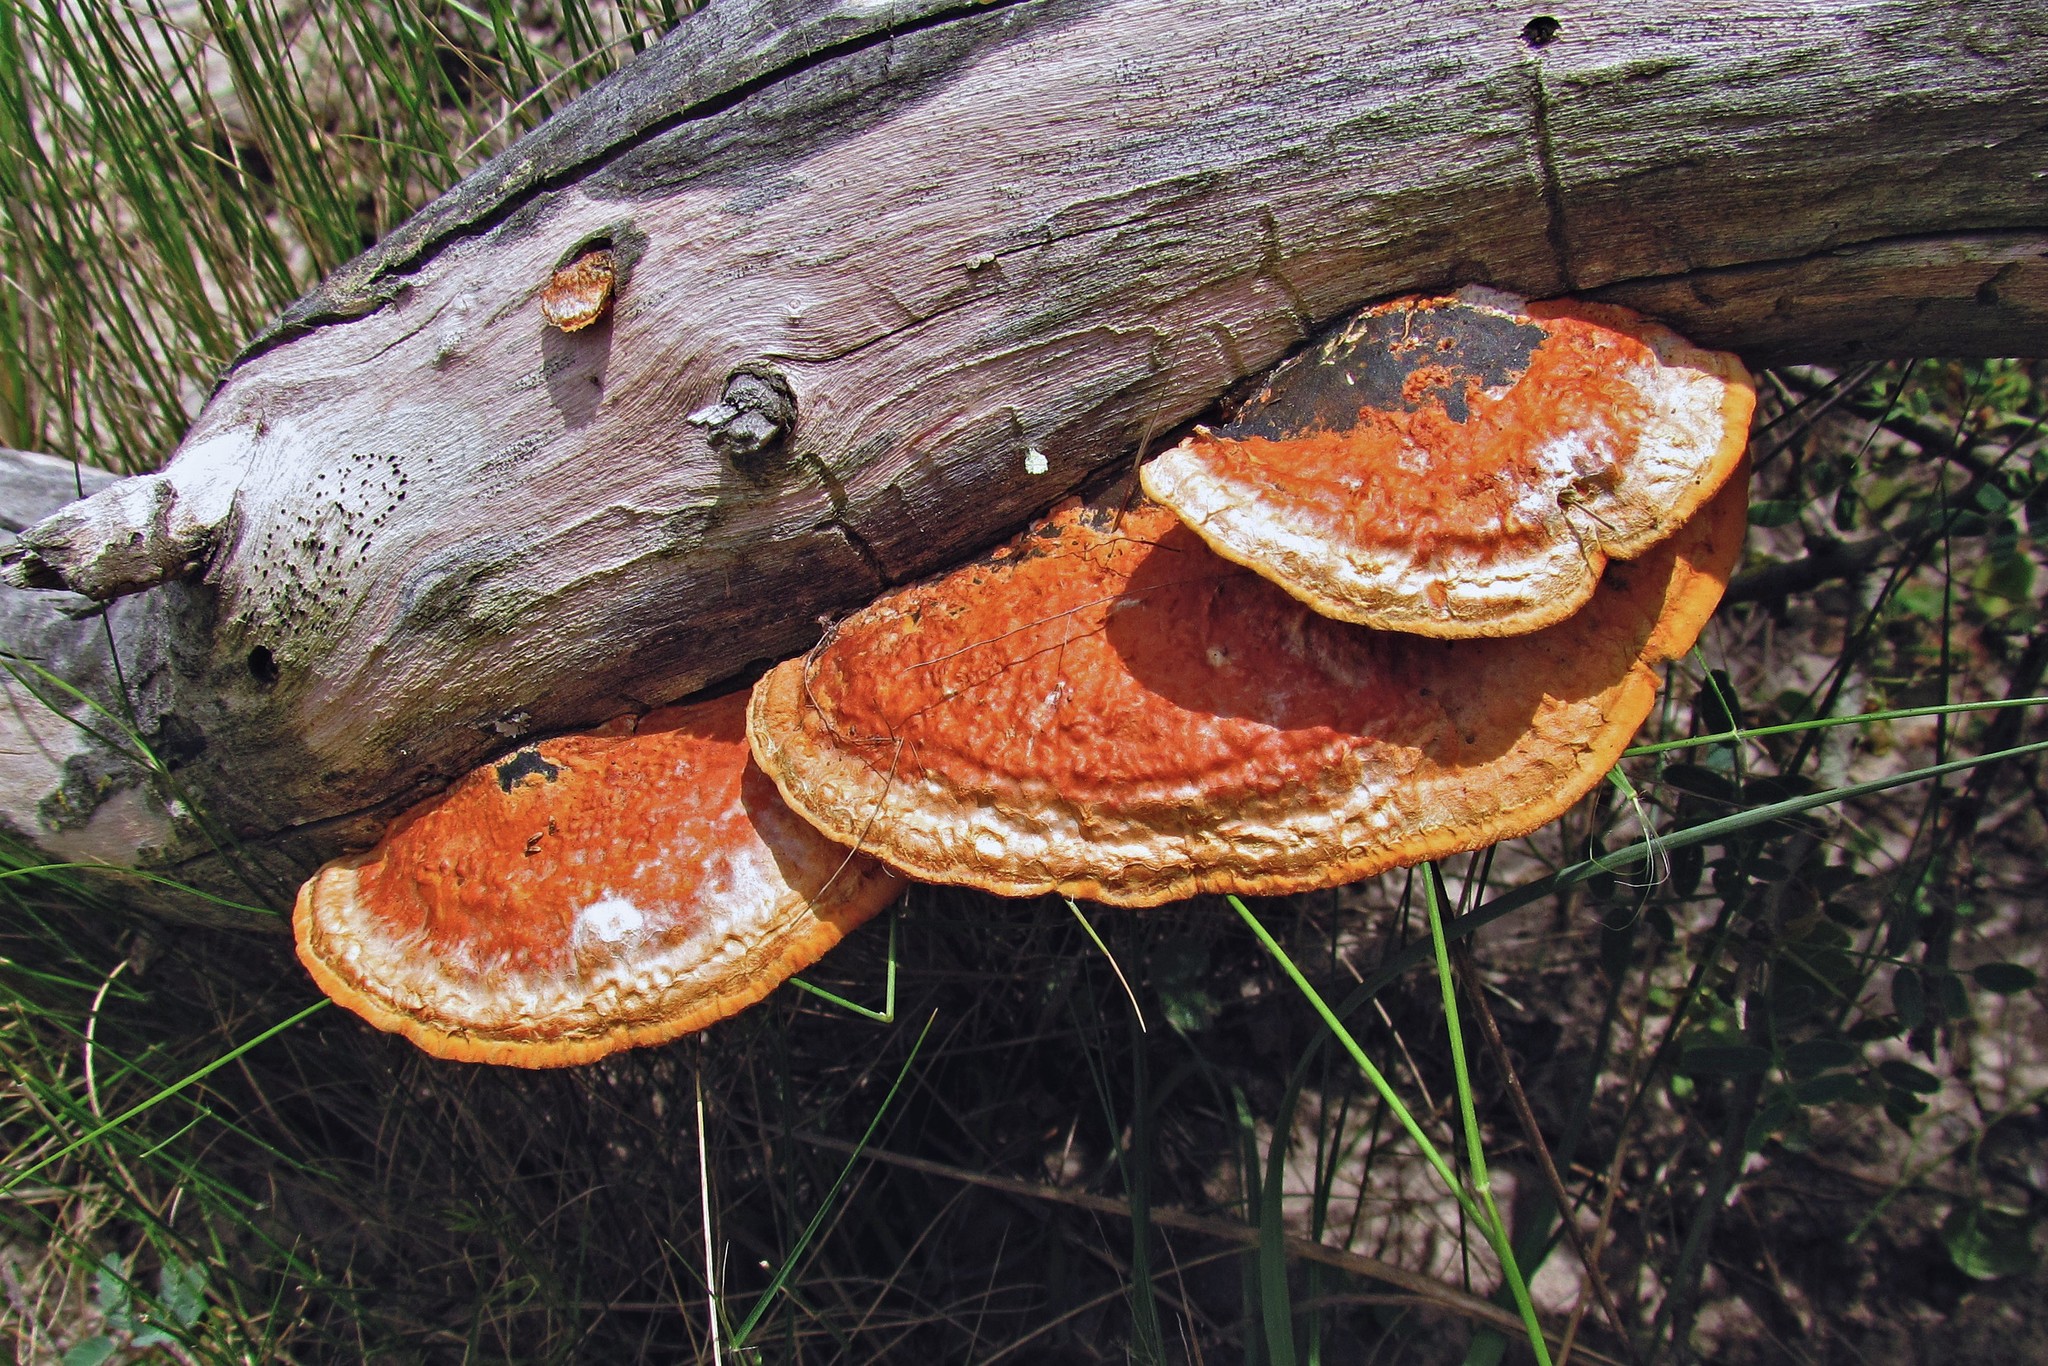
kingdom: Fungi
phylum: Basidiomycota
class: Agaricomycetes
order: Polyporales
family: Polyporaceae
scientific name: Polyporaceae
